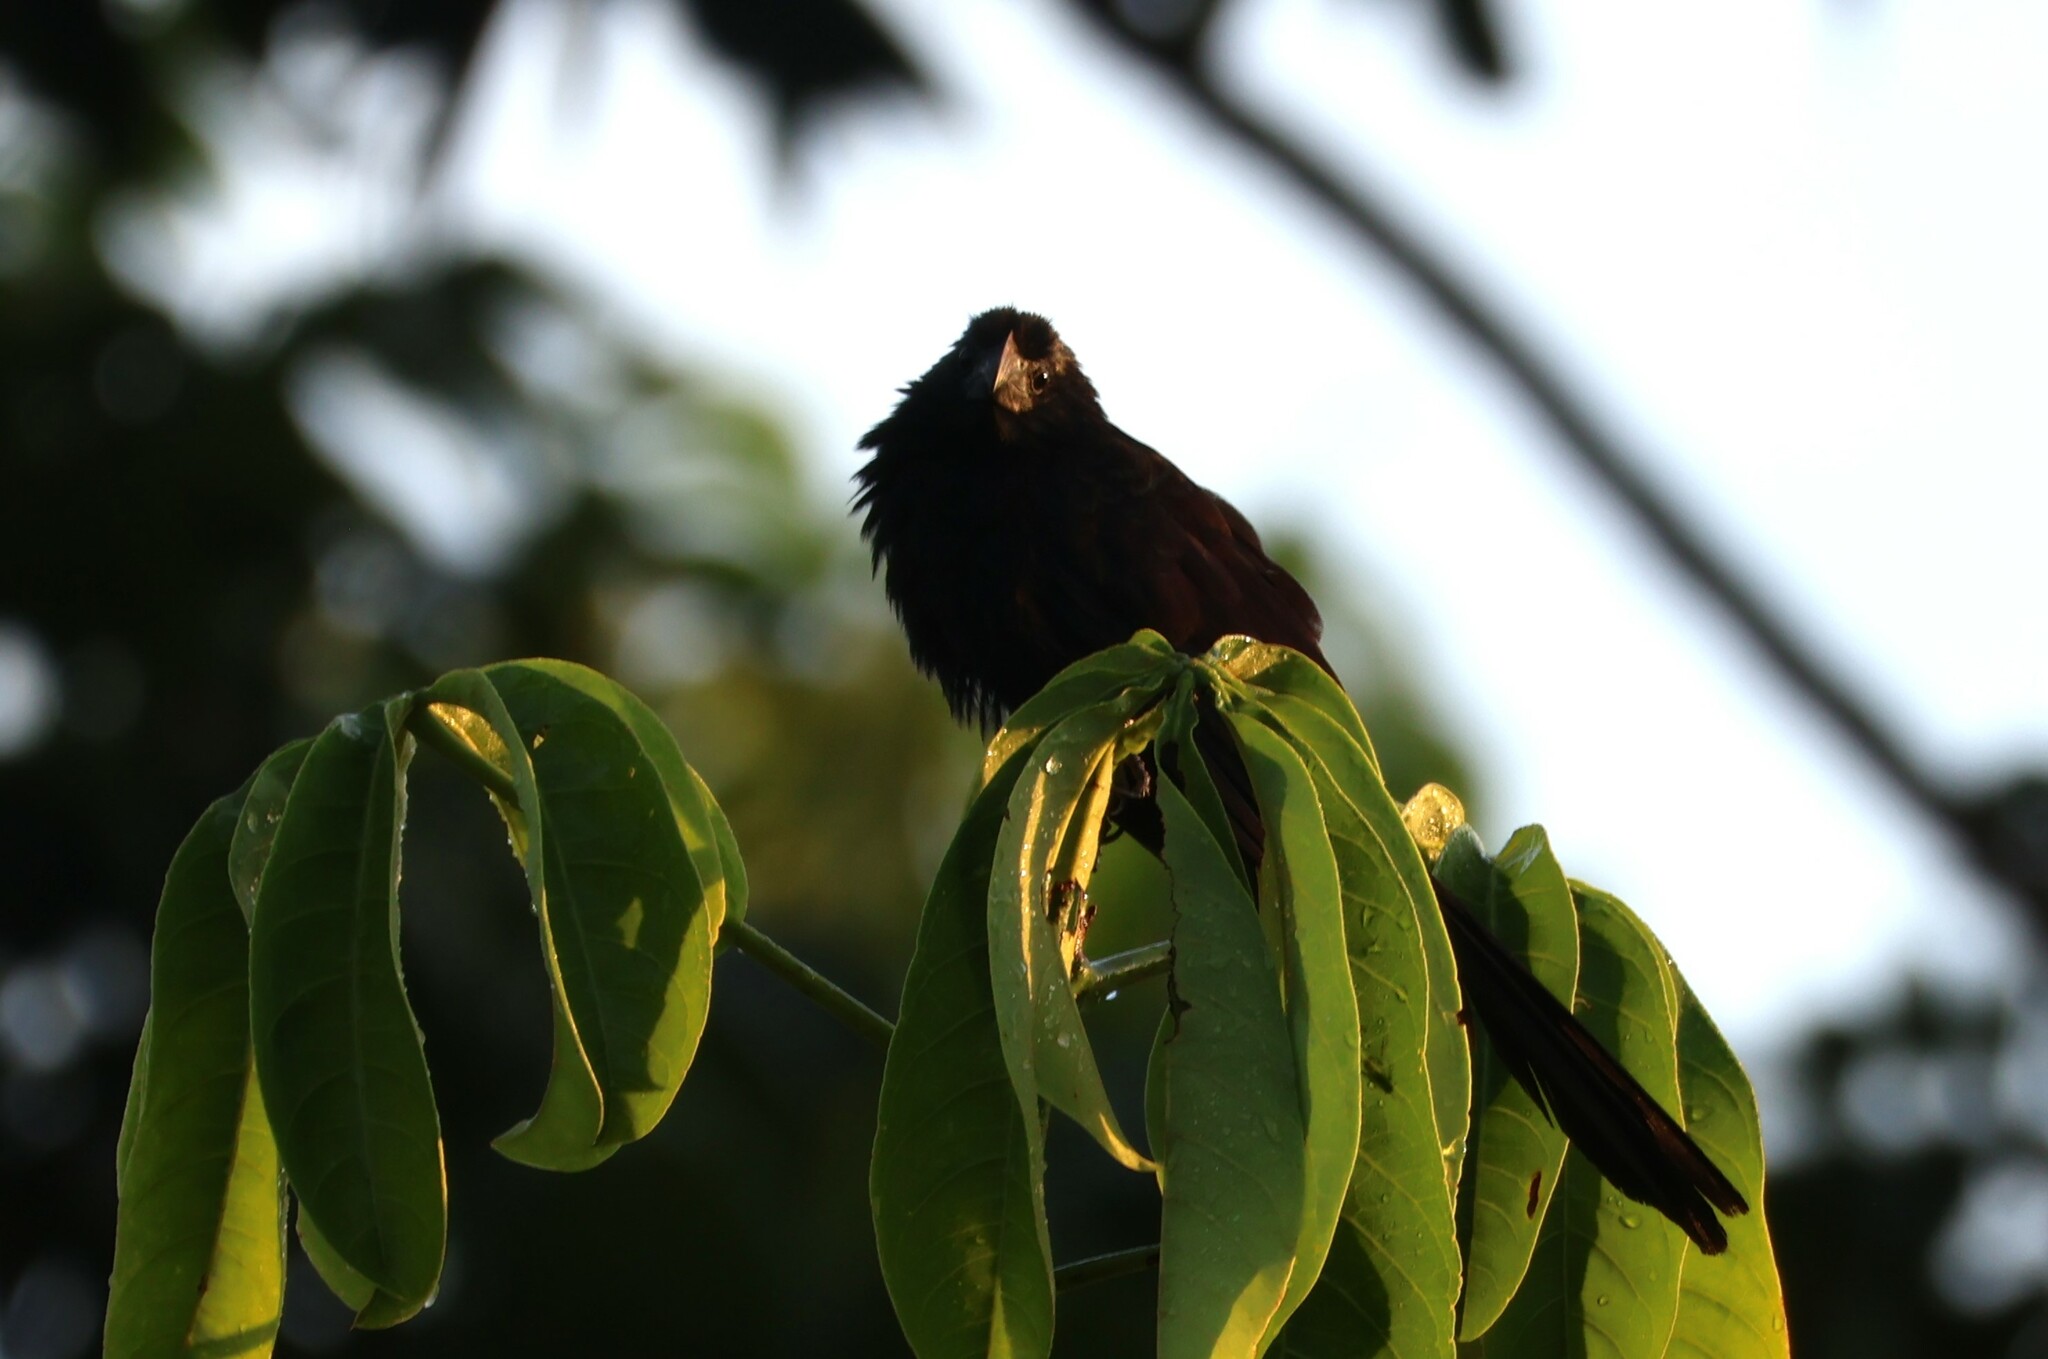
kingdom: Animalia
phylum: Chordata
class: Aves
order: Cuculiformes
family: Cuculidae
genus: Crotophaga
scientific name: Crotophaga sulcirostris
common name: Groove-billed ani
